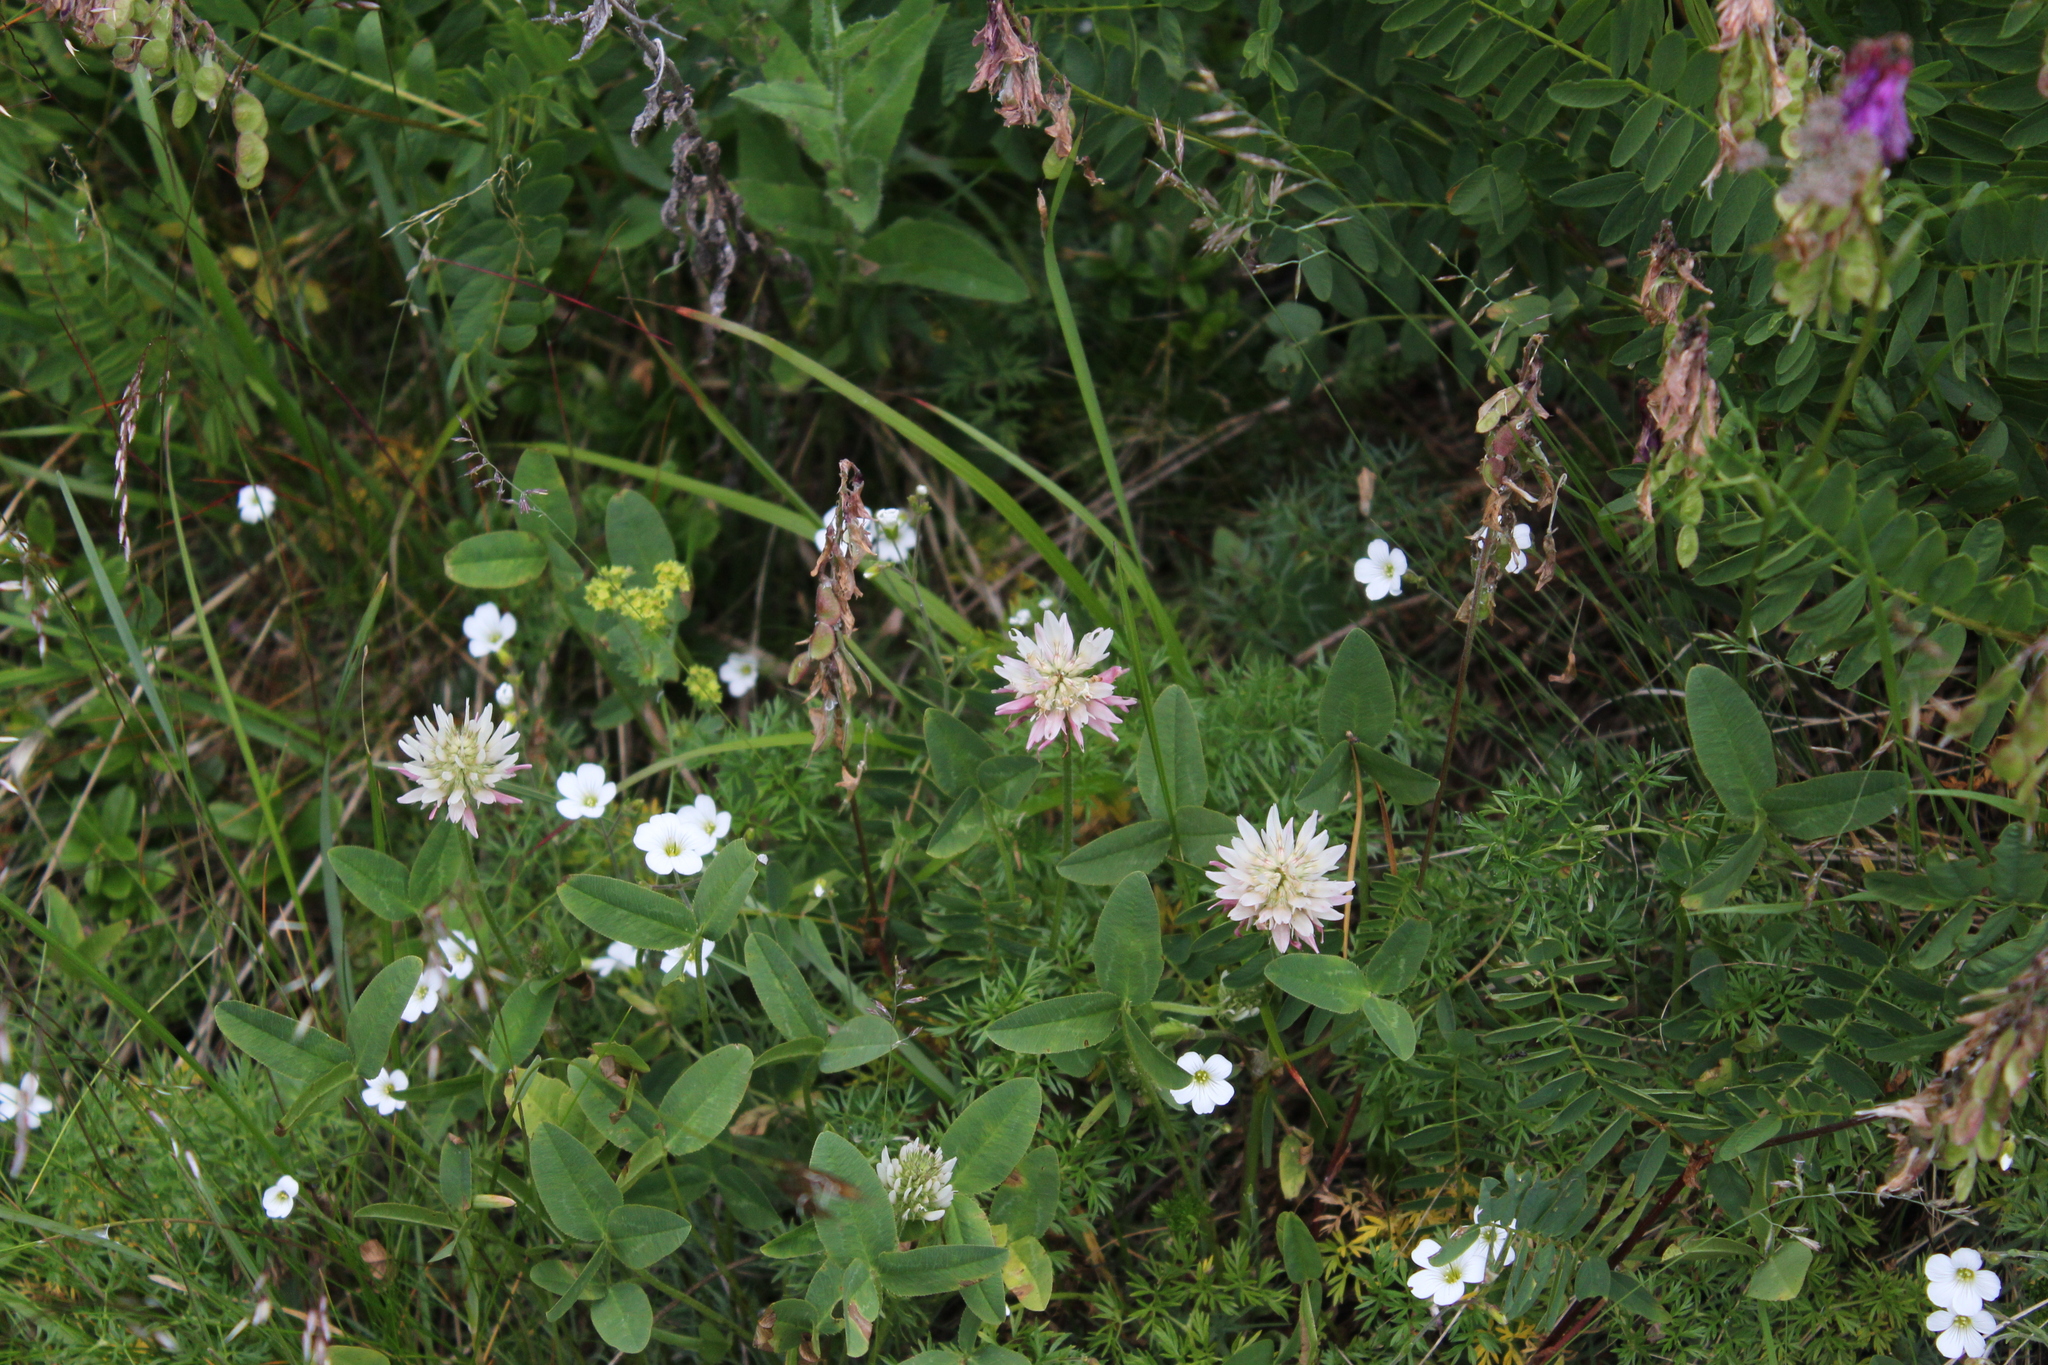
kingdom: Plantae
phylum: Tracheophyta
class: Magnoliopsida
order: Fabales
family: Fabaceae
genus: Trifolium
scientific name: Trifolium ambiguum
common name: Kura clover
